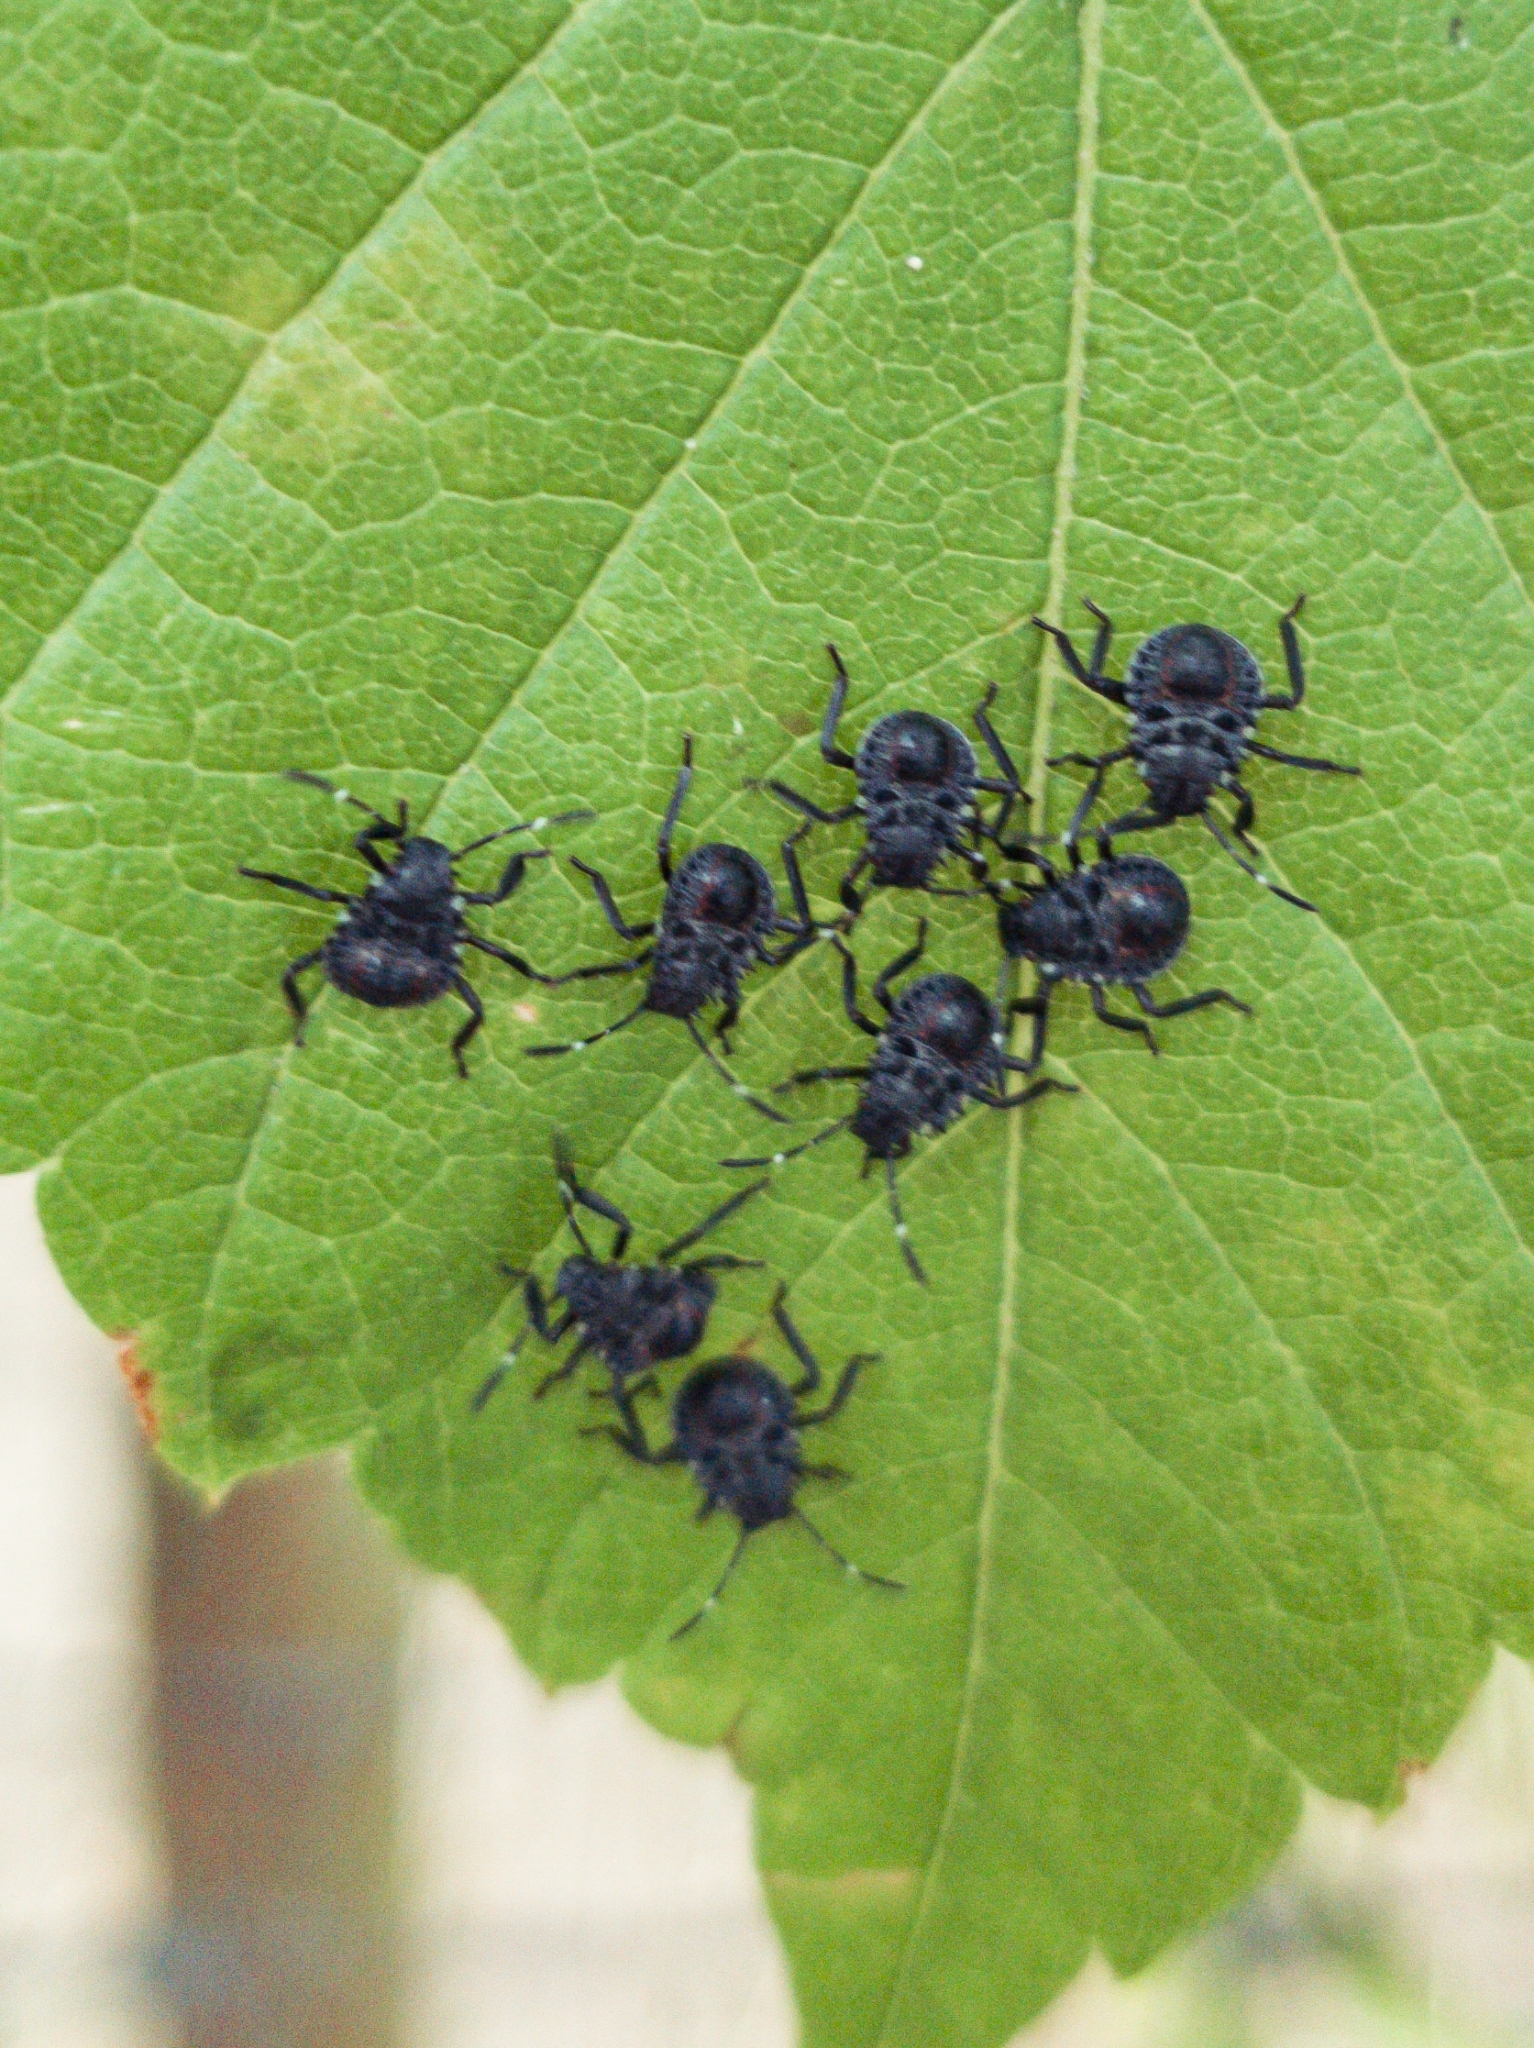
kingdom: Animalia
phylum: Arthropoda
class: Insecta
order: Hemiptera
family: Pentatomidae
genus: Halyomorpha
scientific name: Halyomorpha halys
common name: Brown marmorated stink bug
